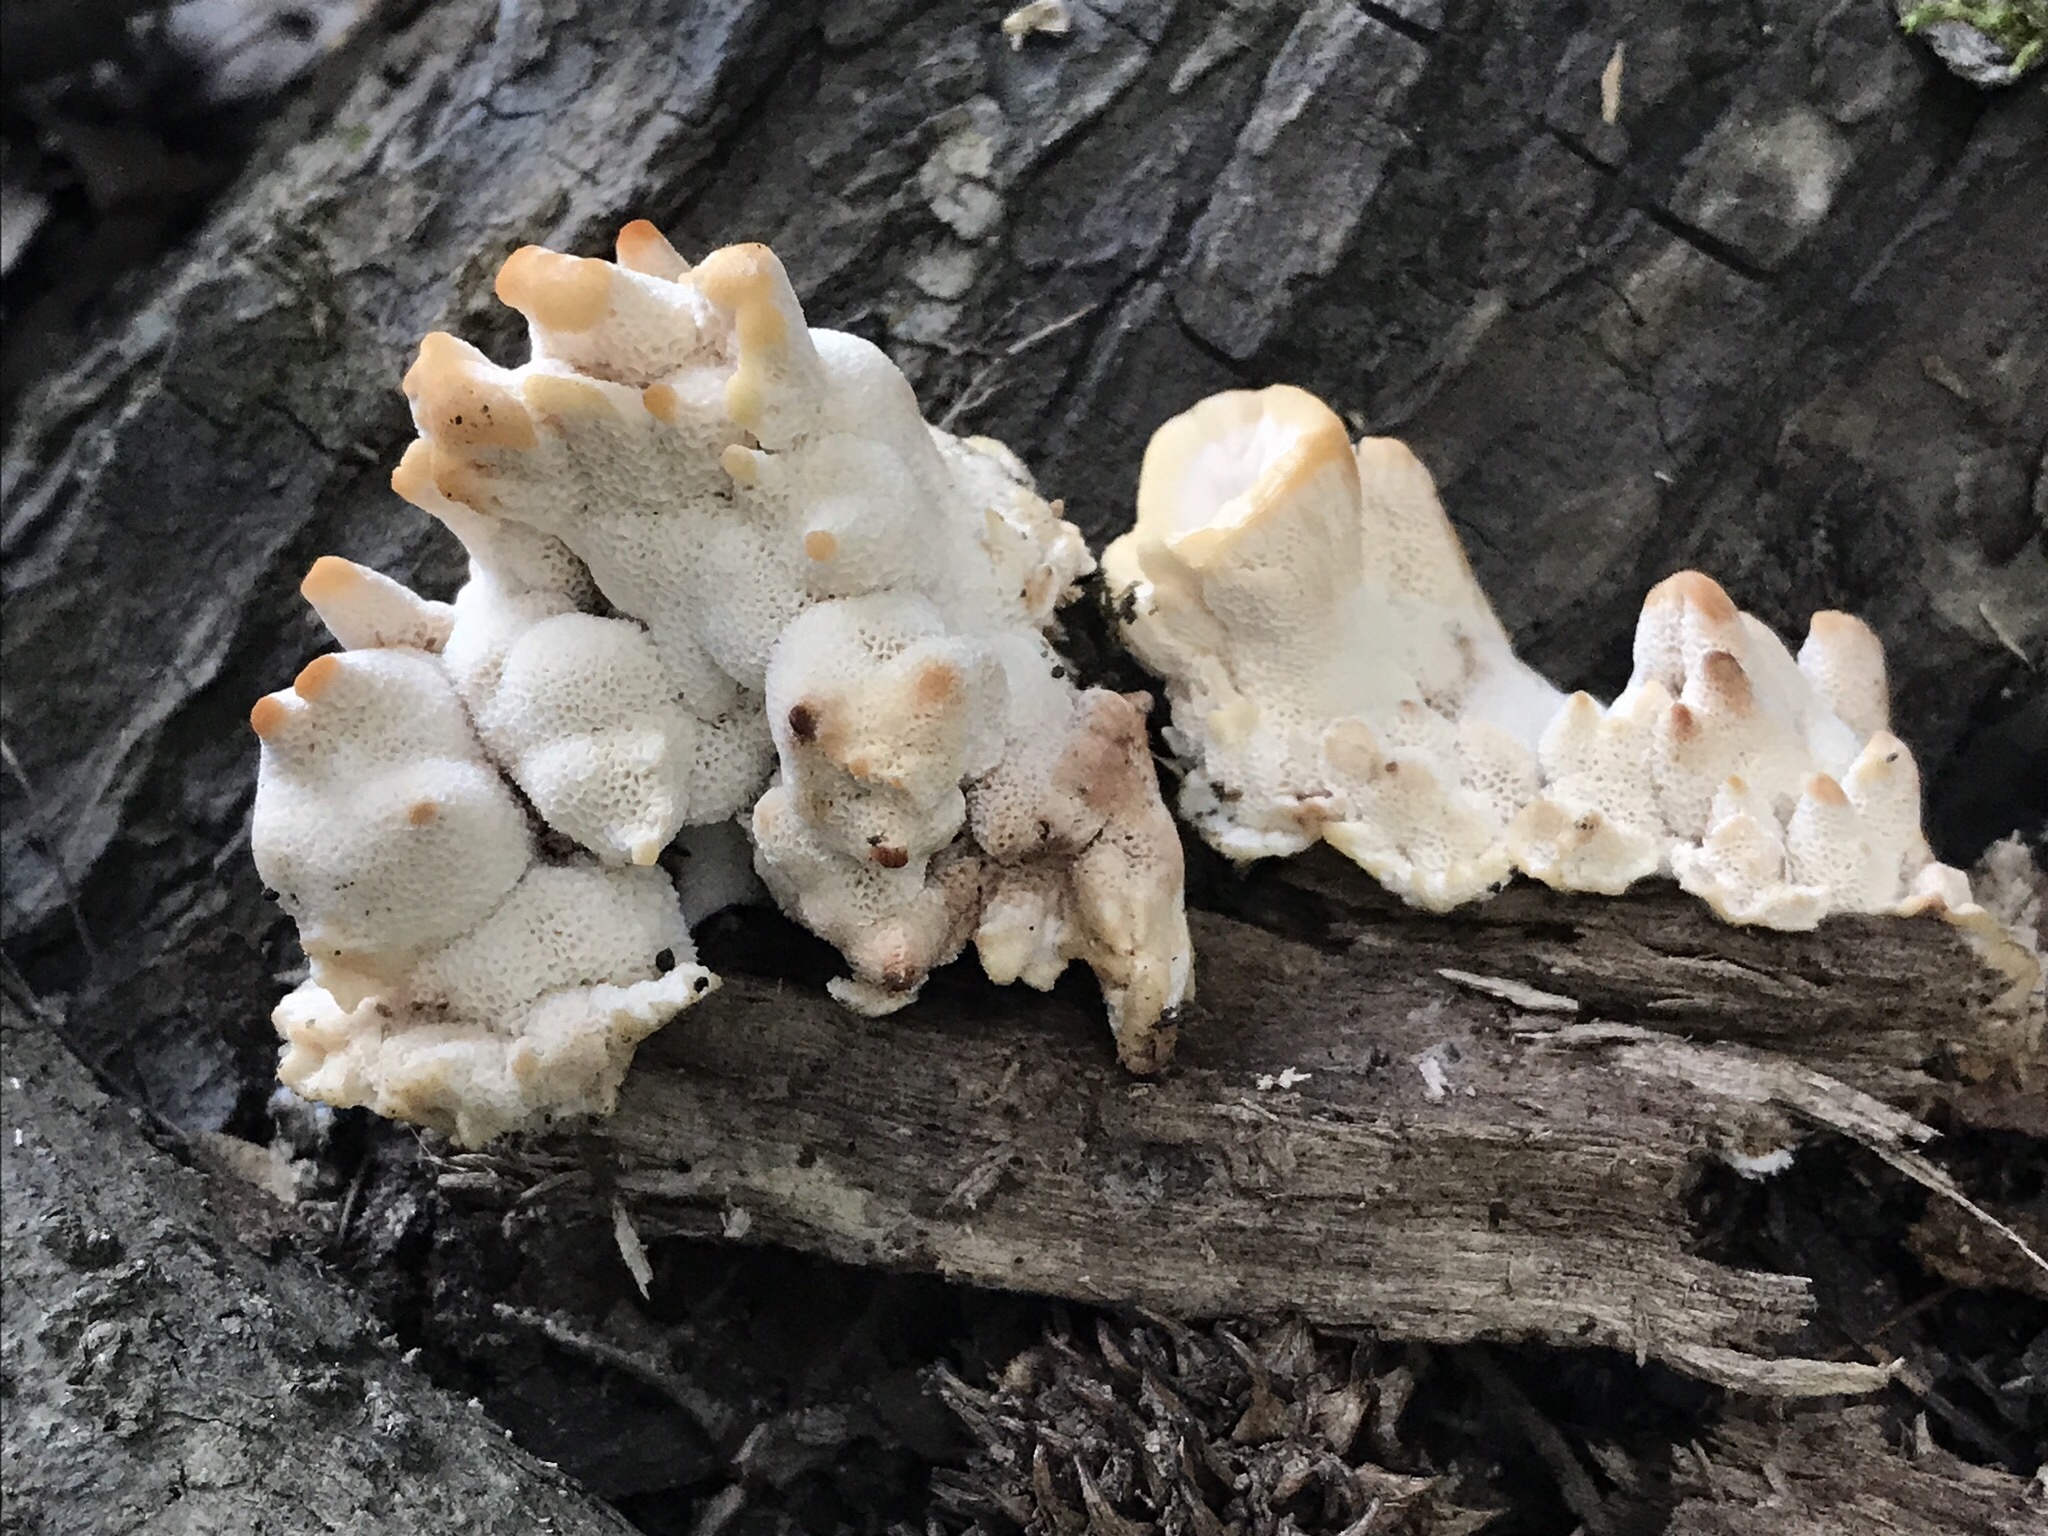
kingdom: Fungi
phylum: Basidiomycota
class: Agaricomycetes
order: Polyporales
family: Podoscyphaceae
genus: Abortiporus
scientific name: Abortiporus biennis
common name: Blushing rosette
